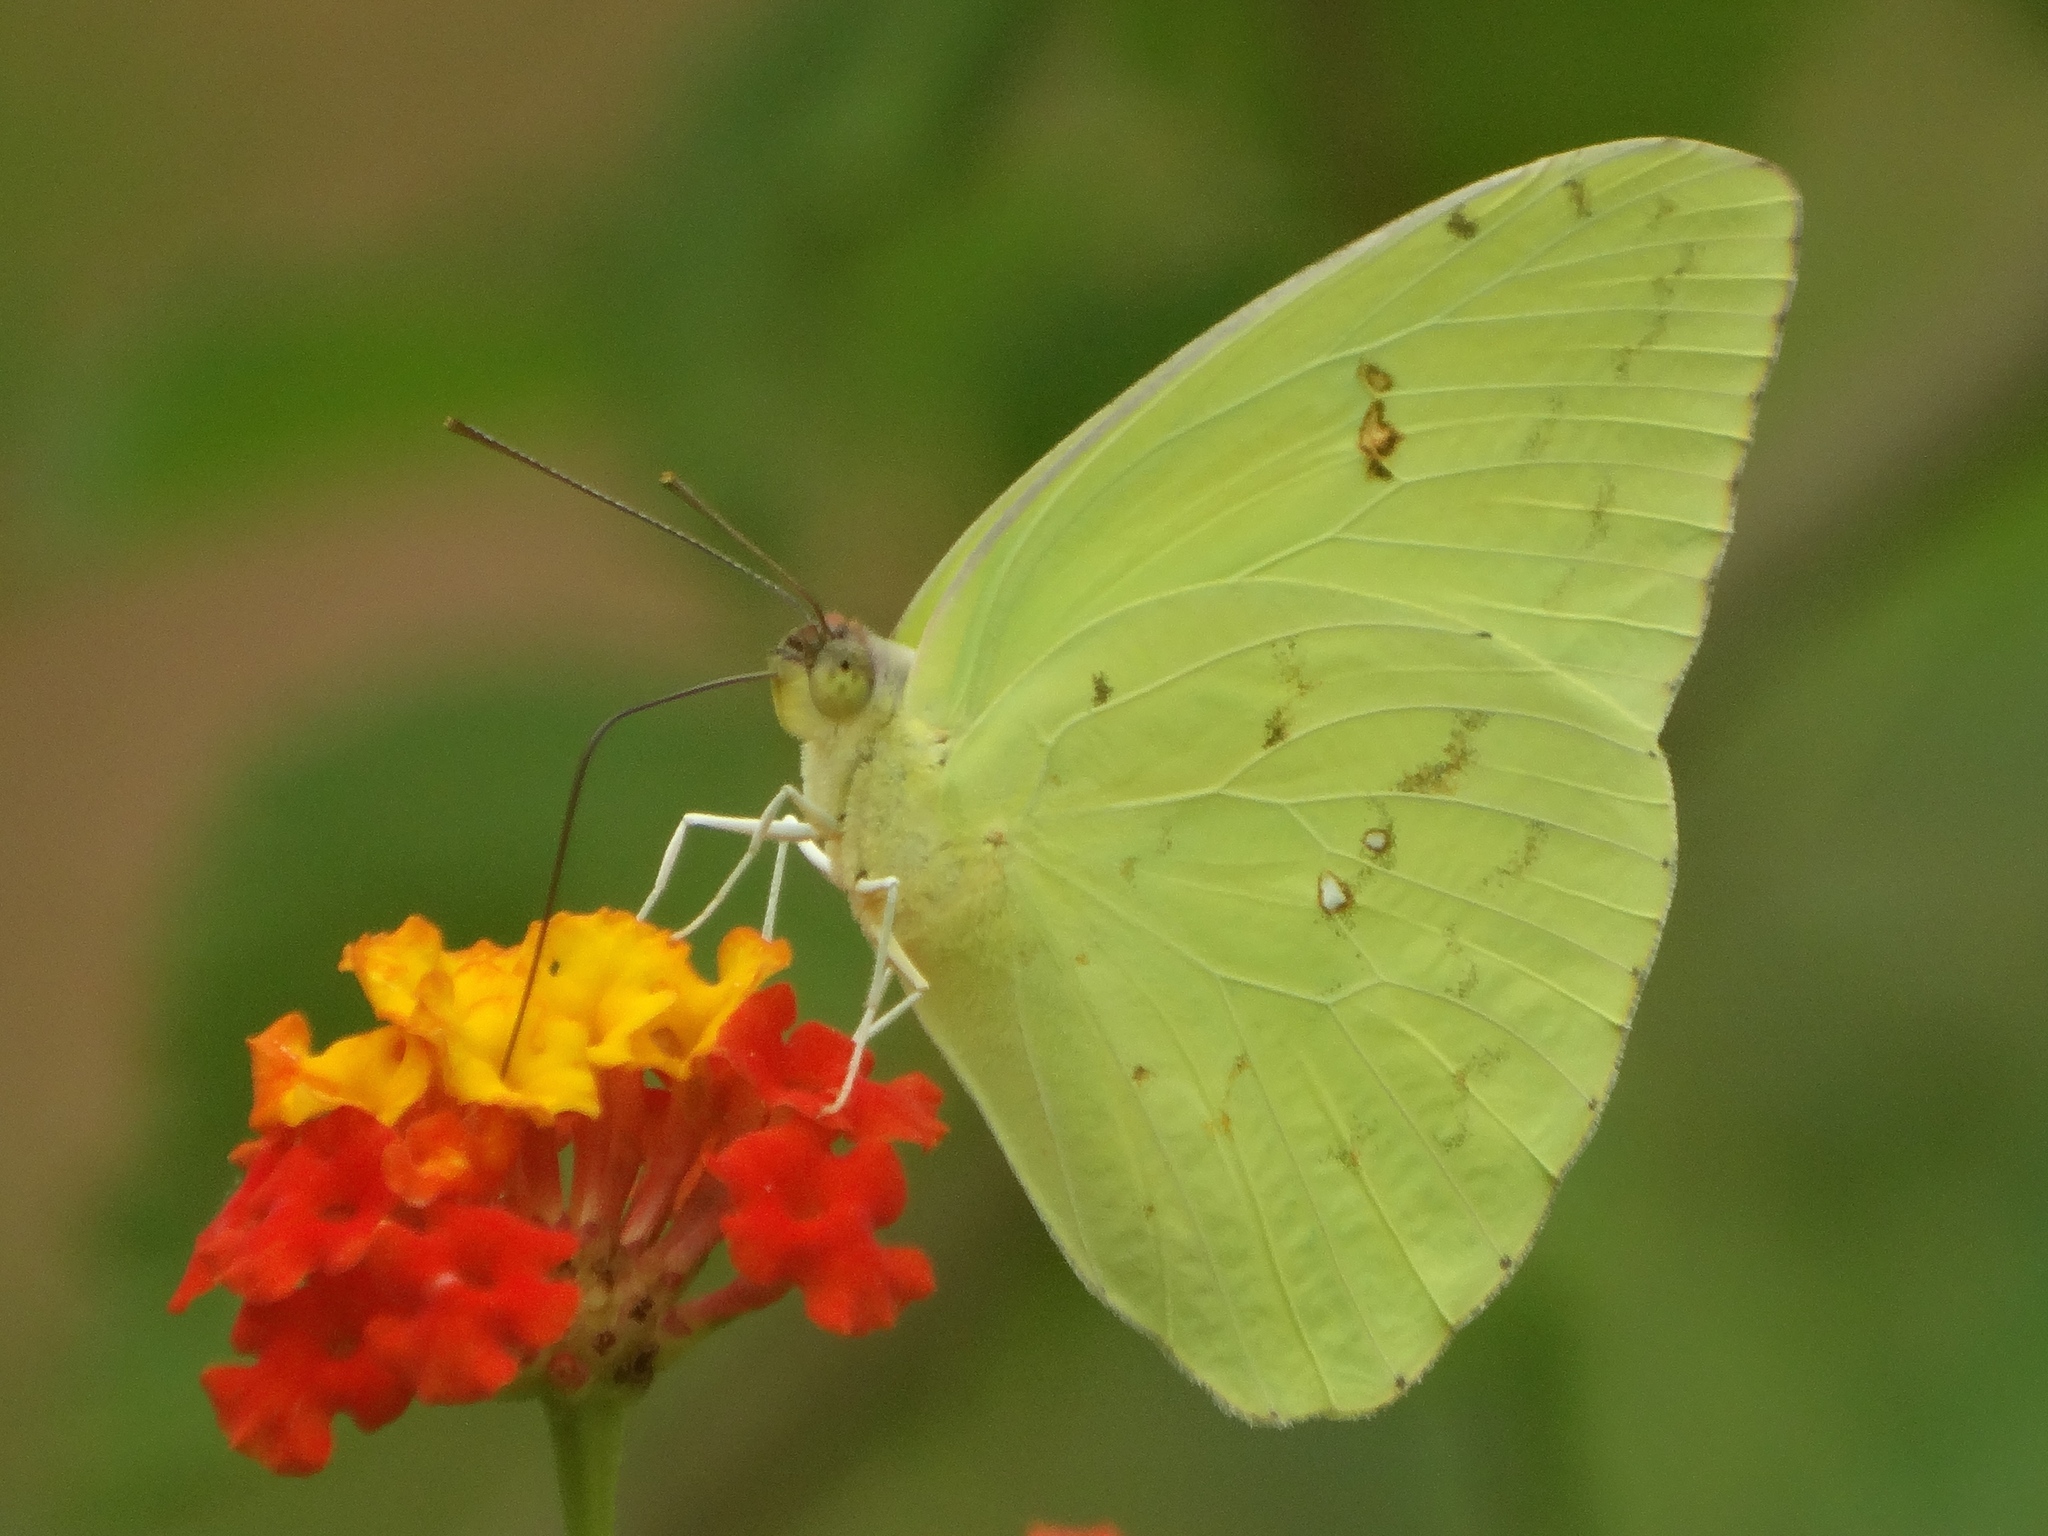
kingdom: Animalia
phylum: Arthropoda
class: Insecta
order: Lepidoptera
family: Pieridae
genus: Pyrisitia
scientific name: Pyrisitia lisa
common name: Little yellow
